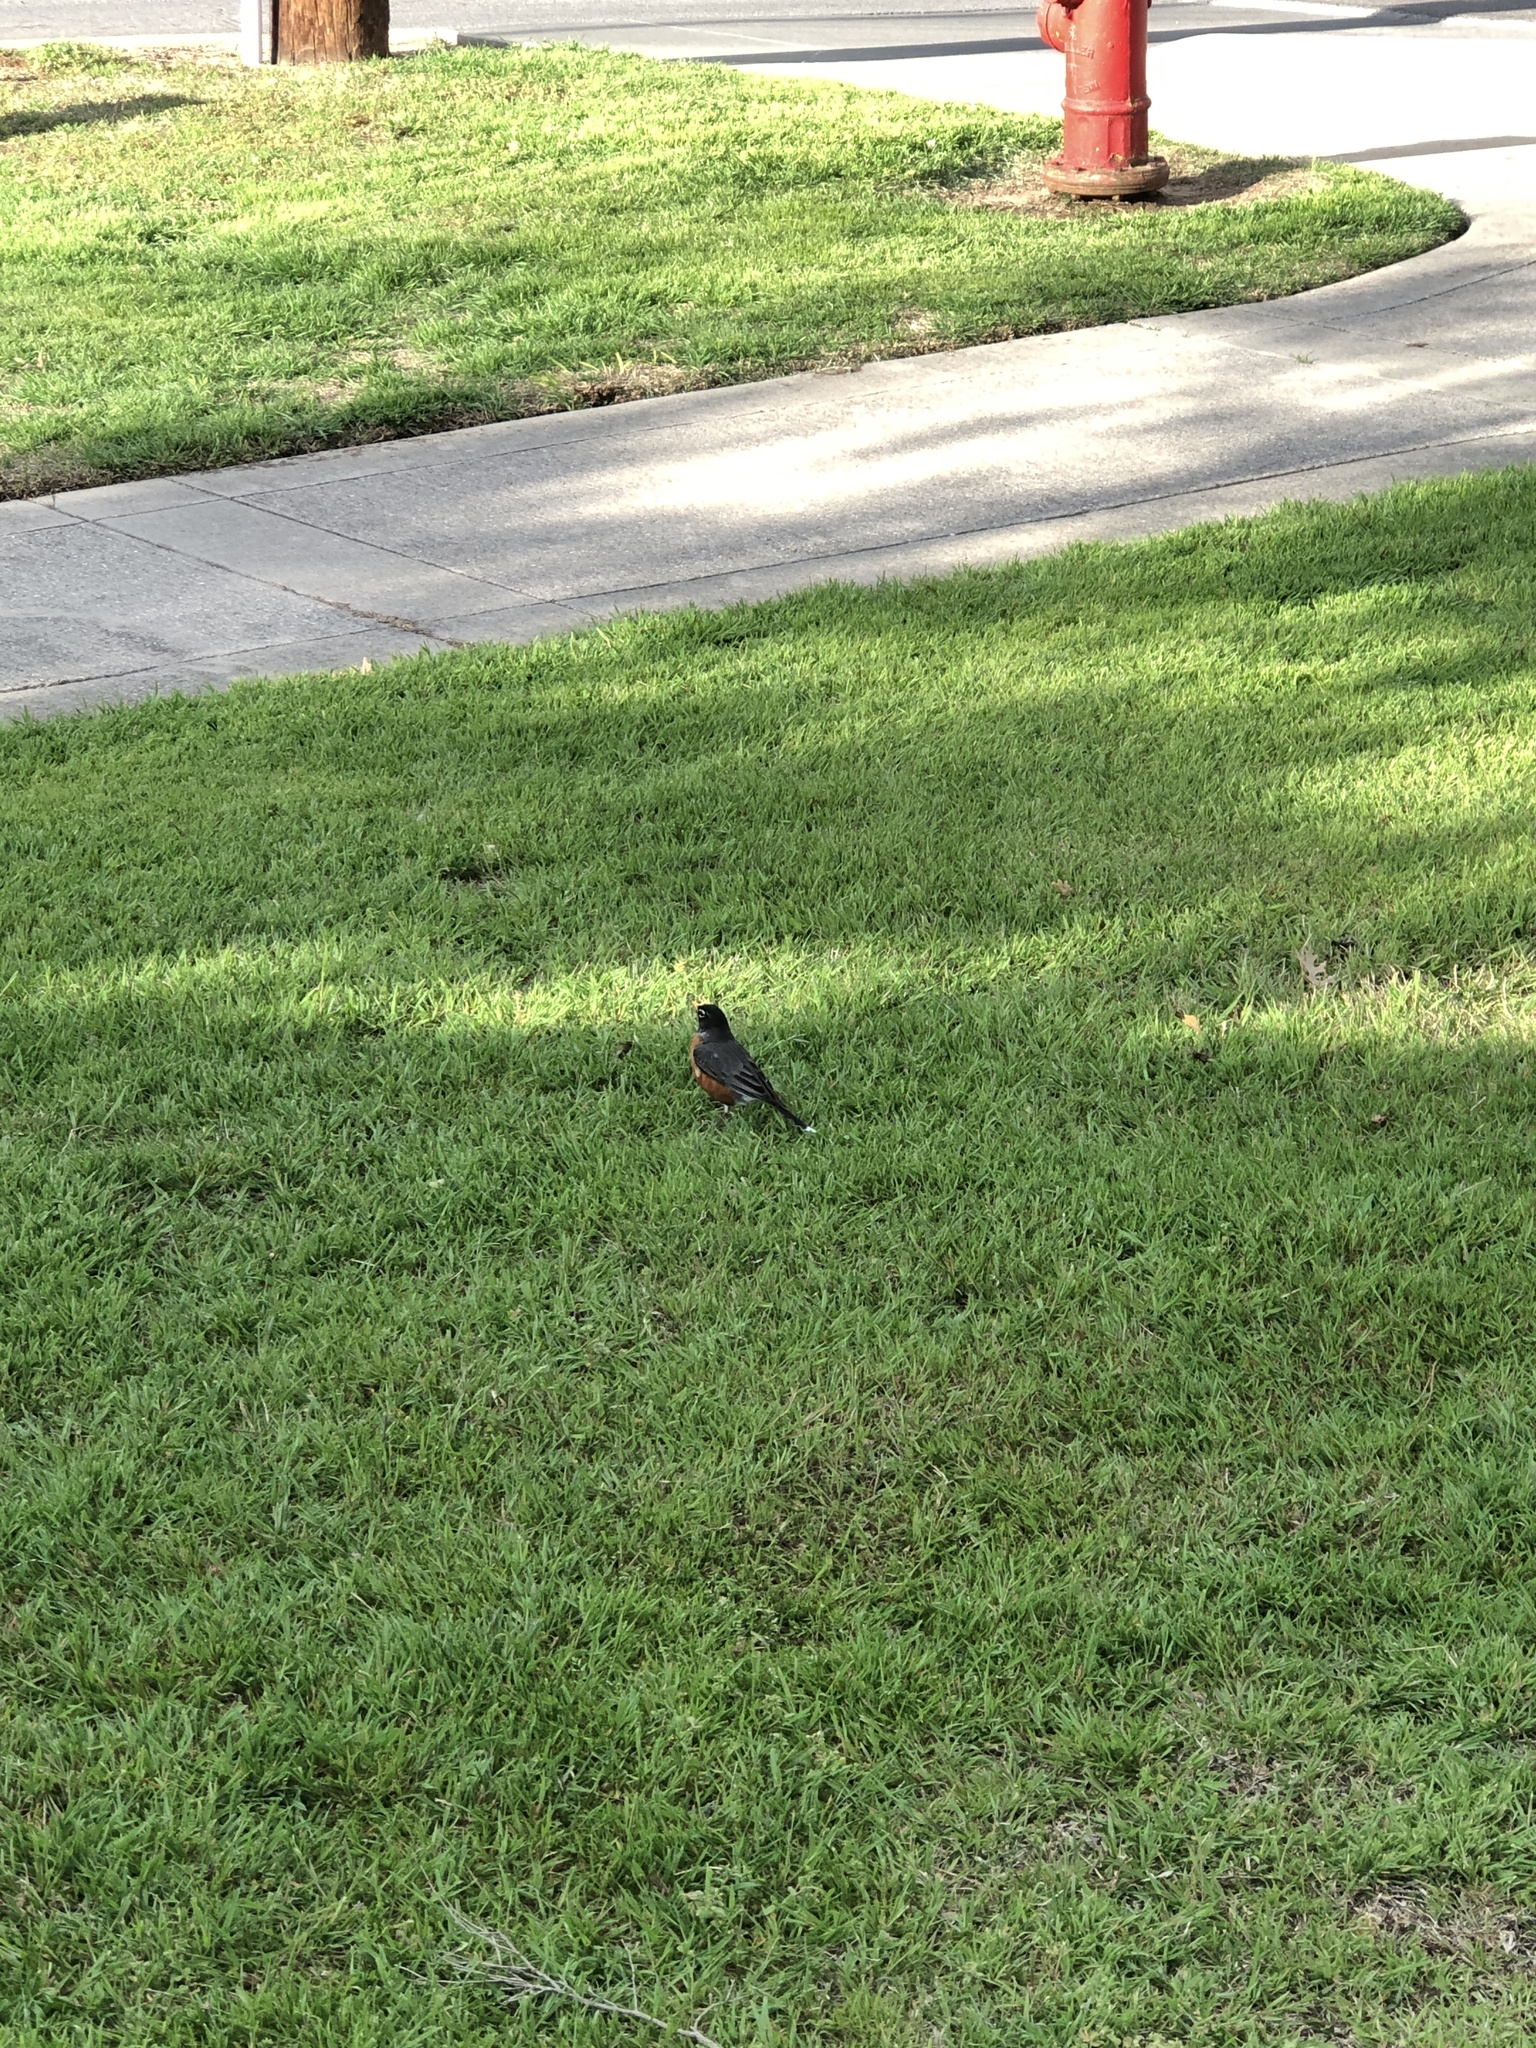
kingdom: Animalia
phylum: Chordata
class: Aves
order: Passeriformes
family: Turdidae
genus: Turdus
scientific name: Turdus migratorius
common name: American robin
